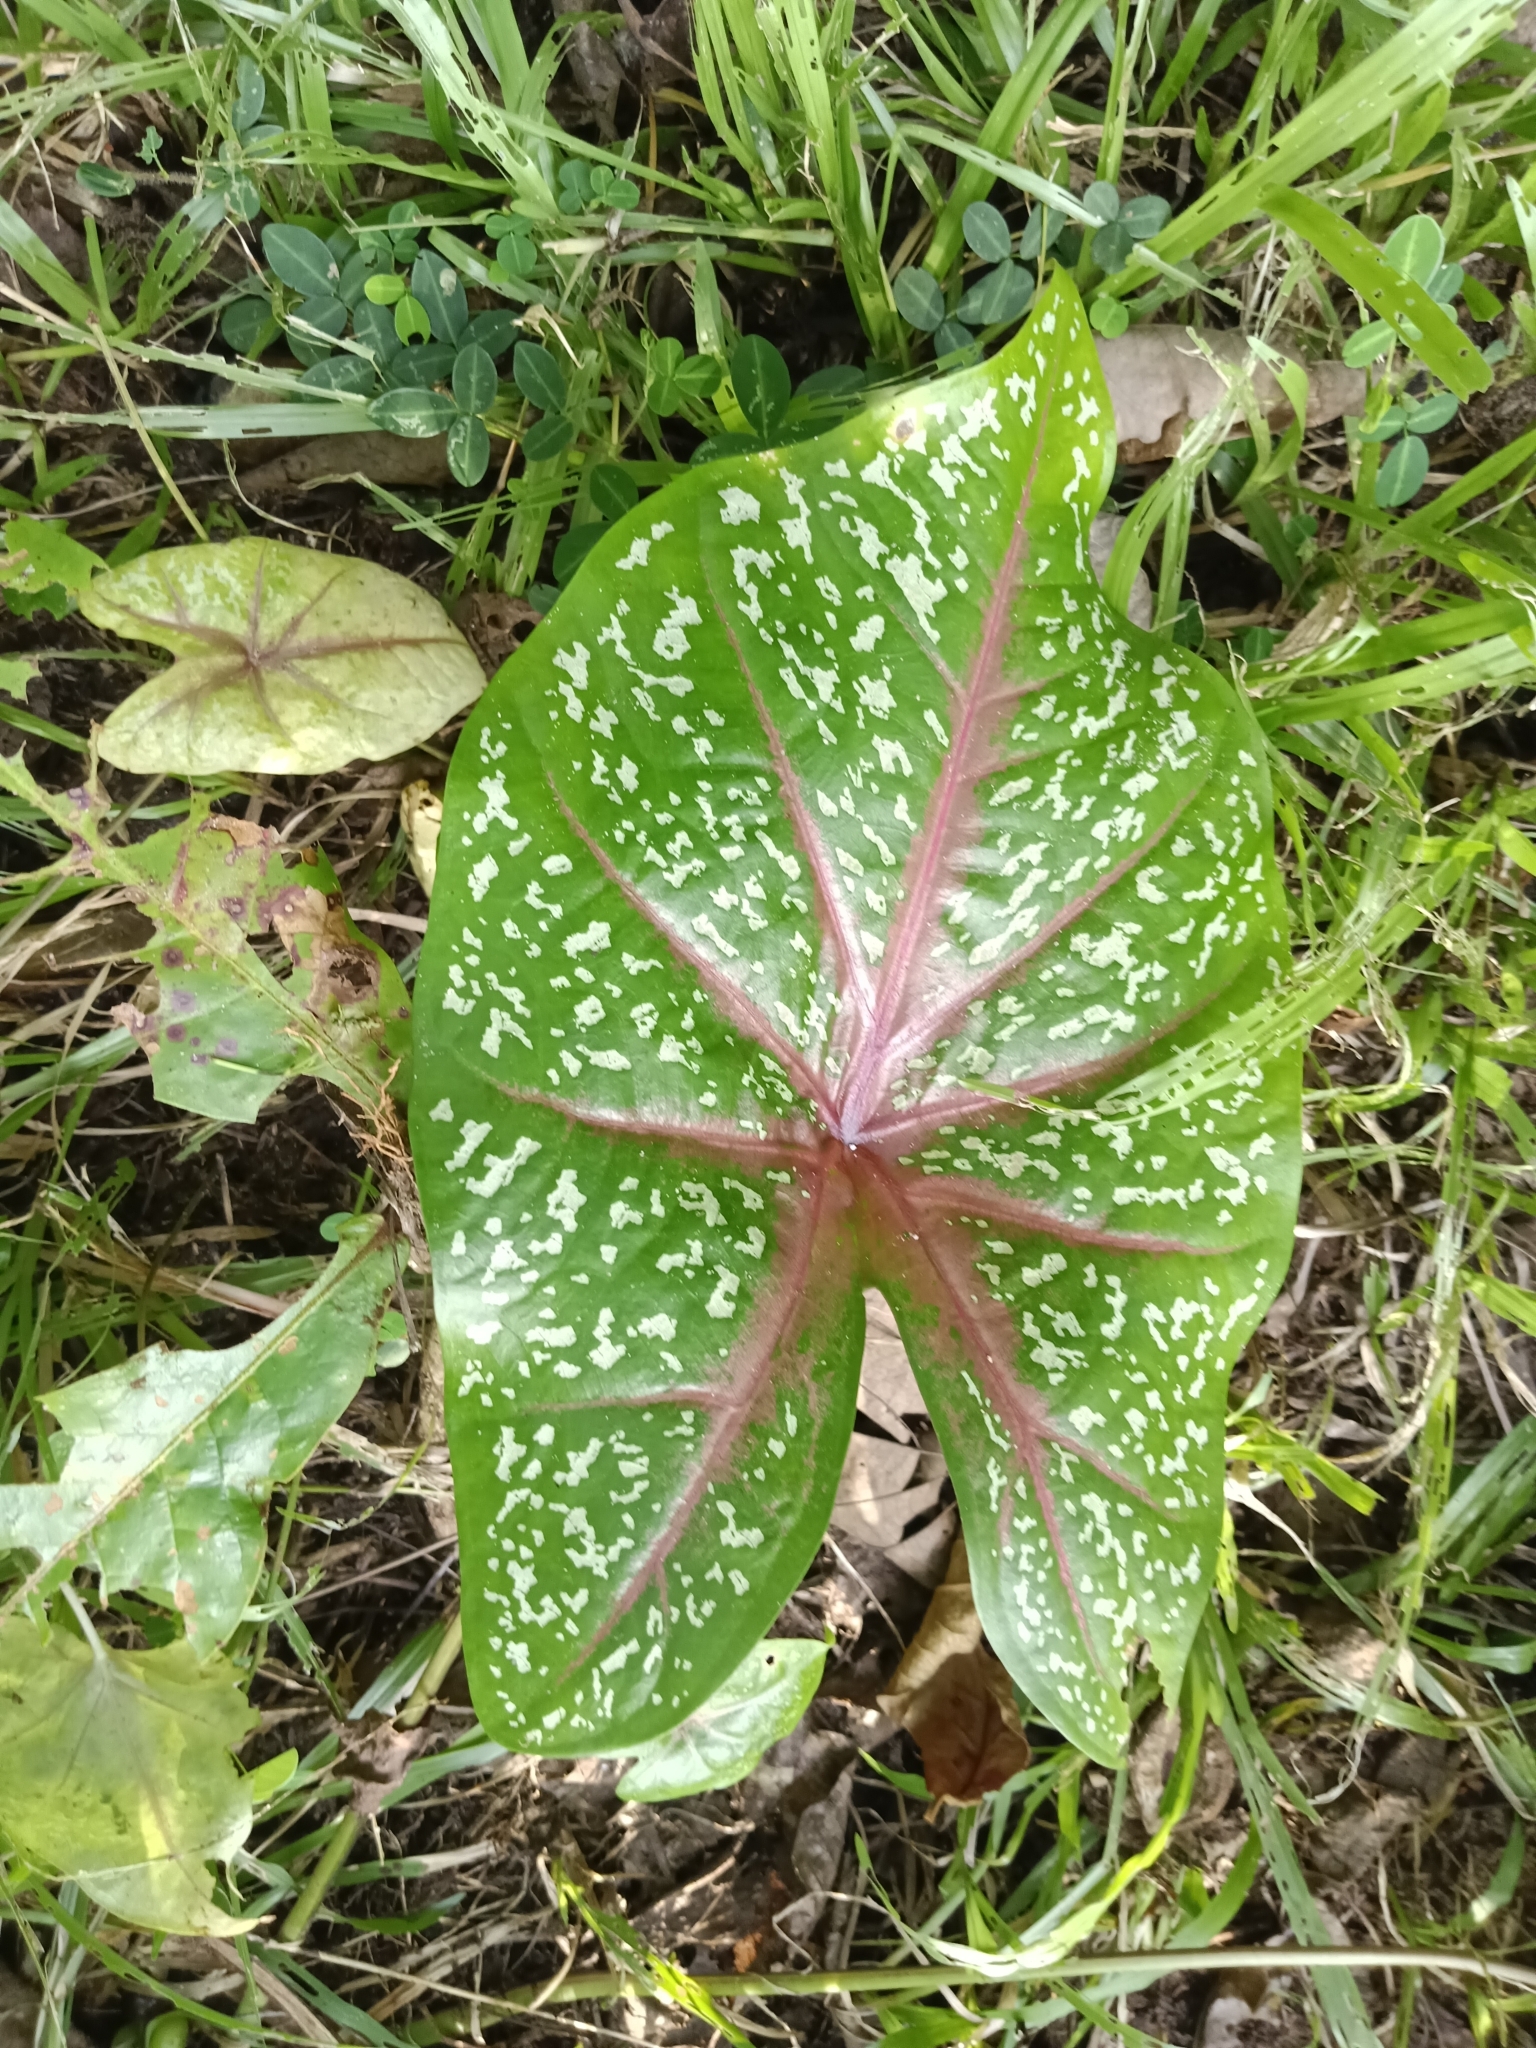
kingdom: Plantae
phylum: Tracheophyta
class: Liliopsida
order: Alismatales
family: Araceae
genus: Caladium
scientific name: Caladium bicolor
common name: Artist's pallet
